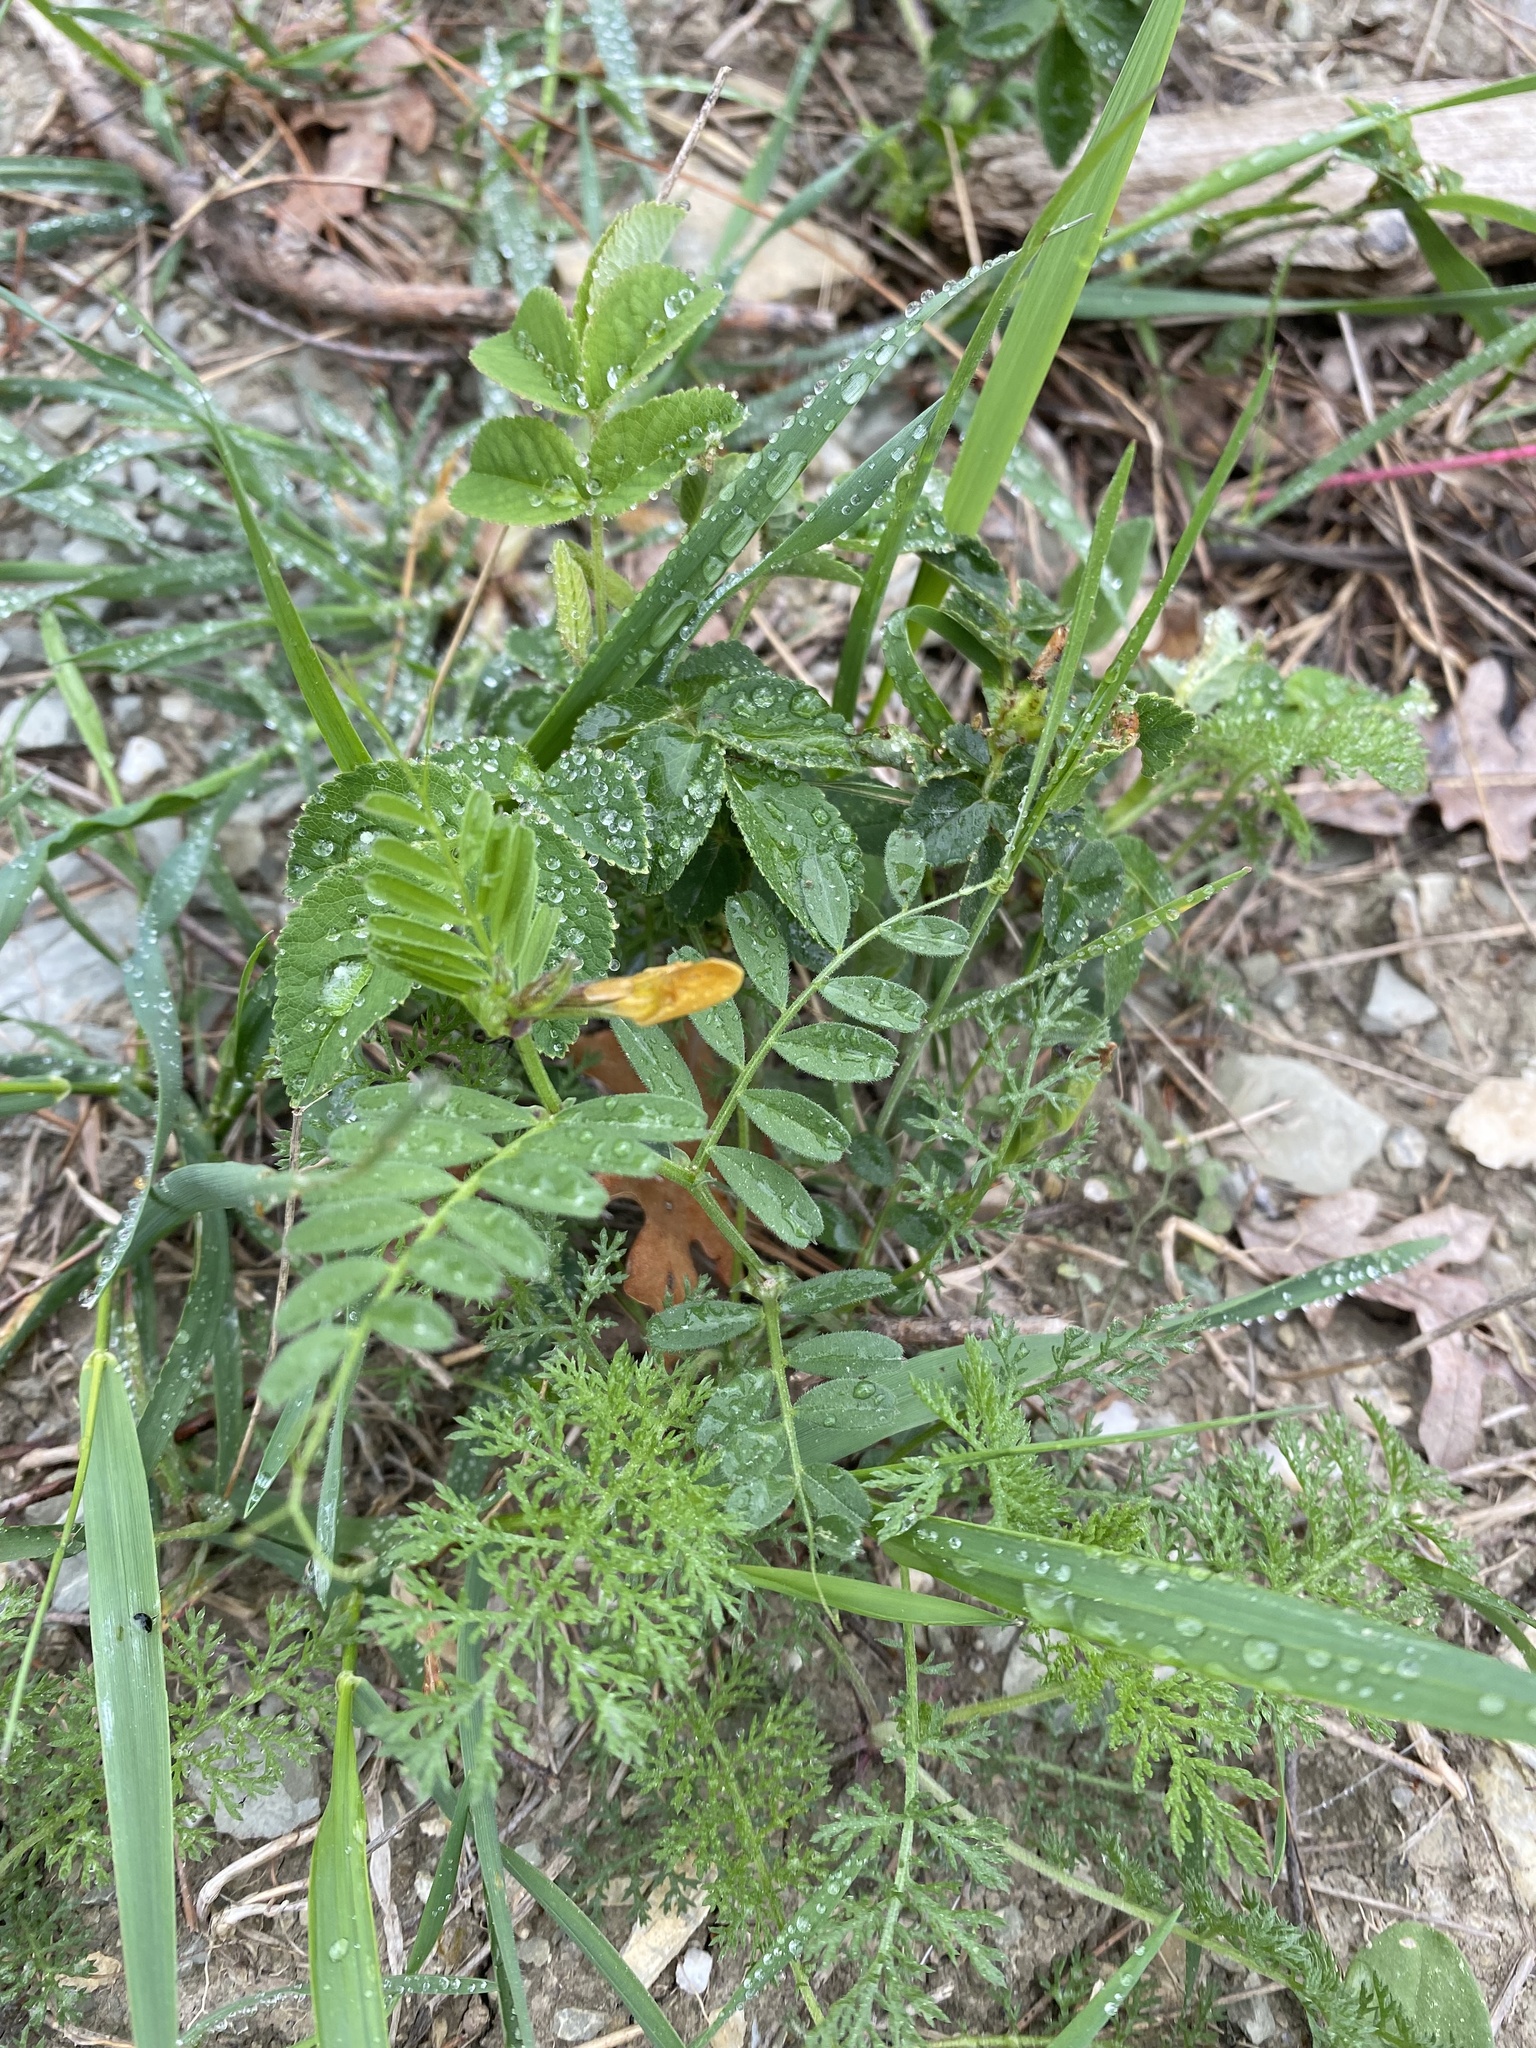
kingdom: Plantae
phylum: Tracheophyta
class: Magnoliopsida
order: Fabales
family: Fabaceae
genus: Vicia
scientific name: Vicia grandiflora
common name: Large yellow vetch
